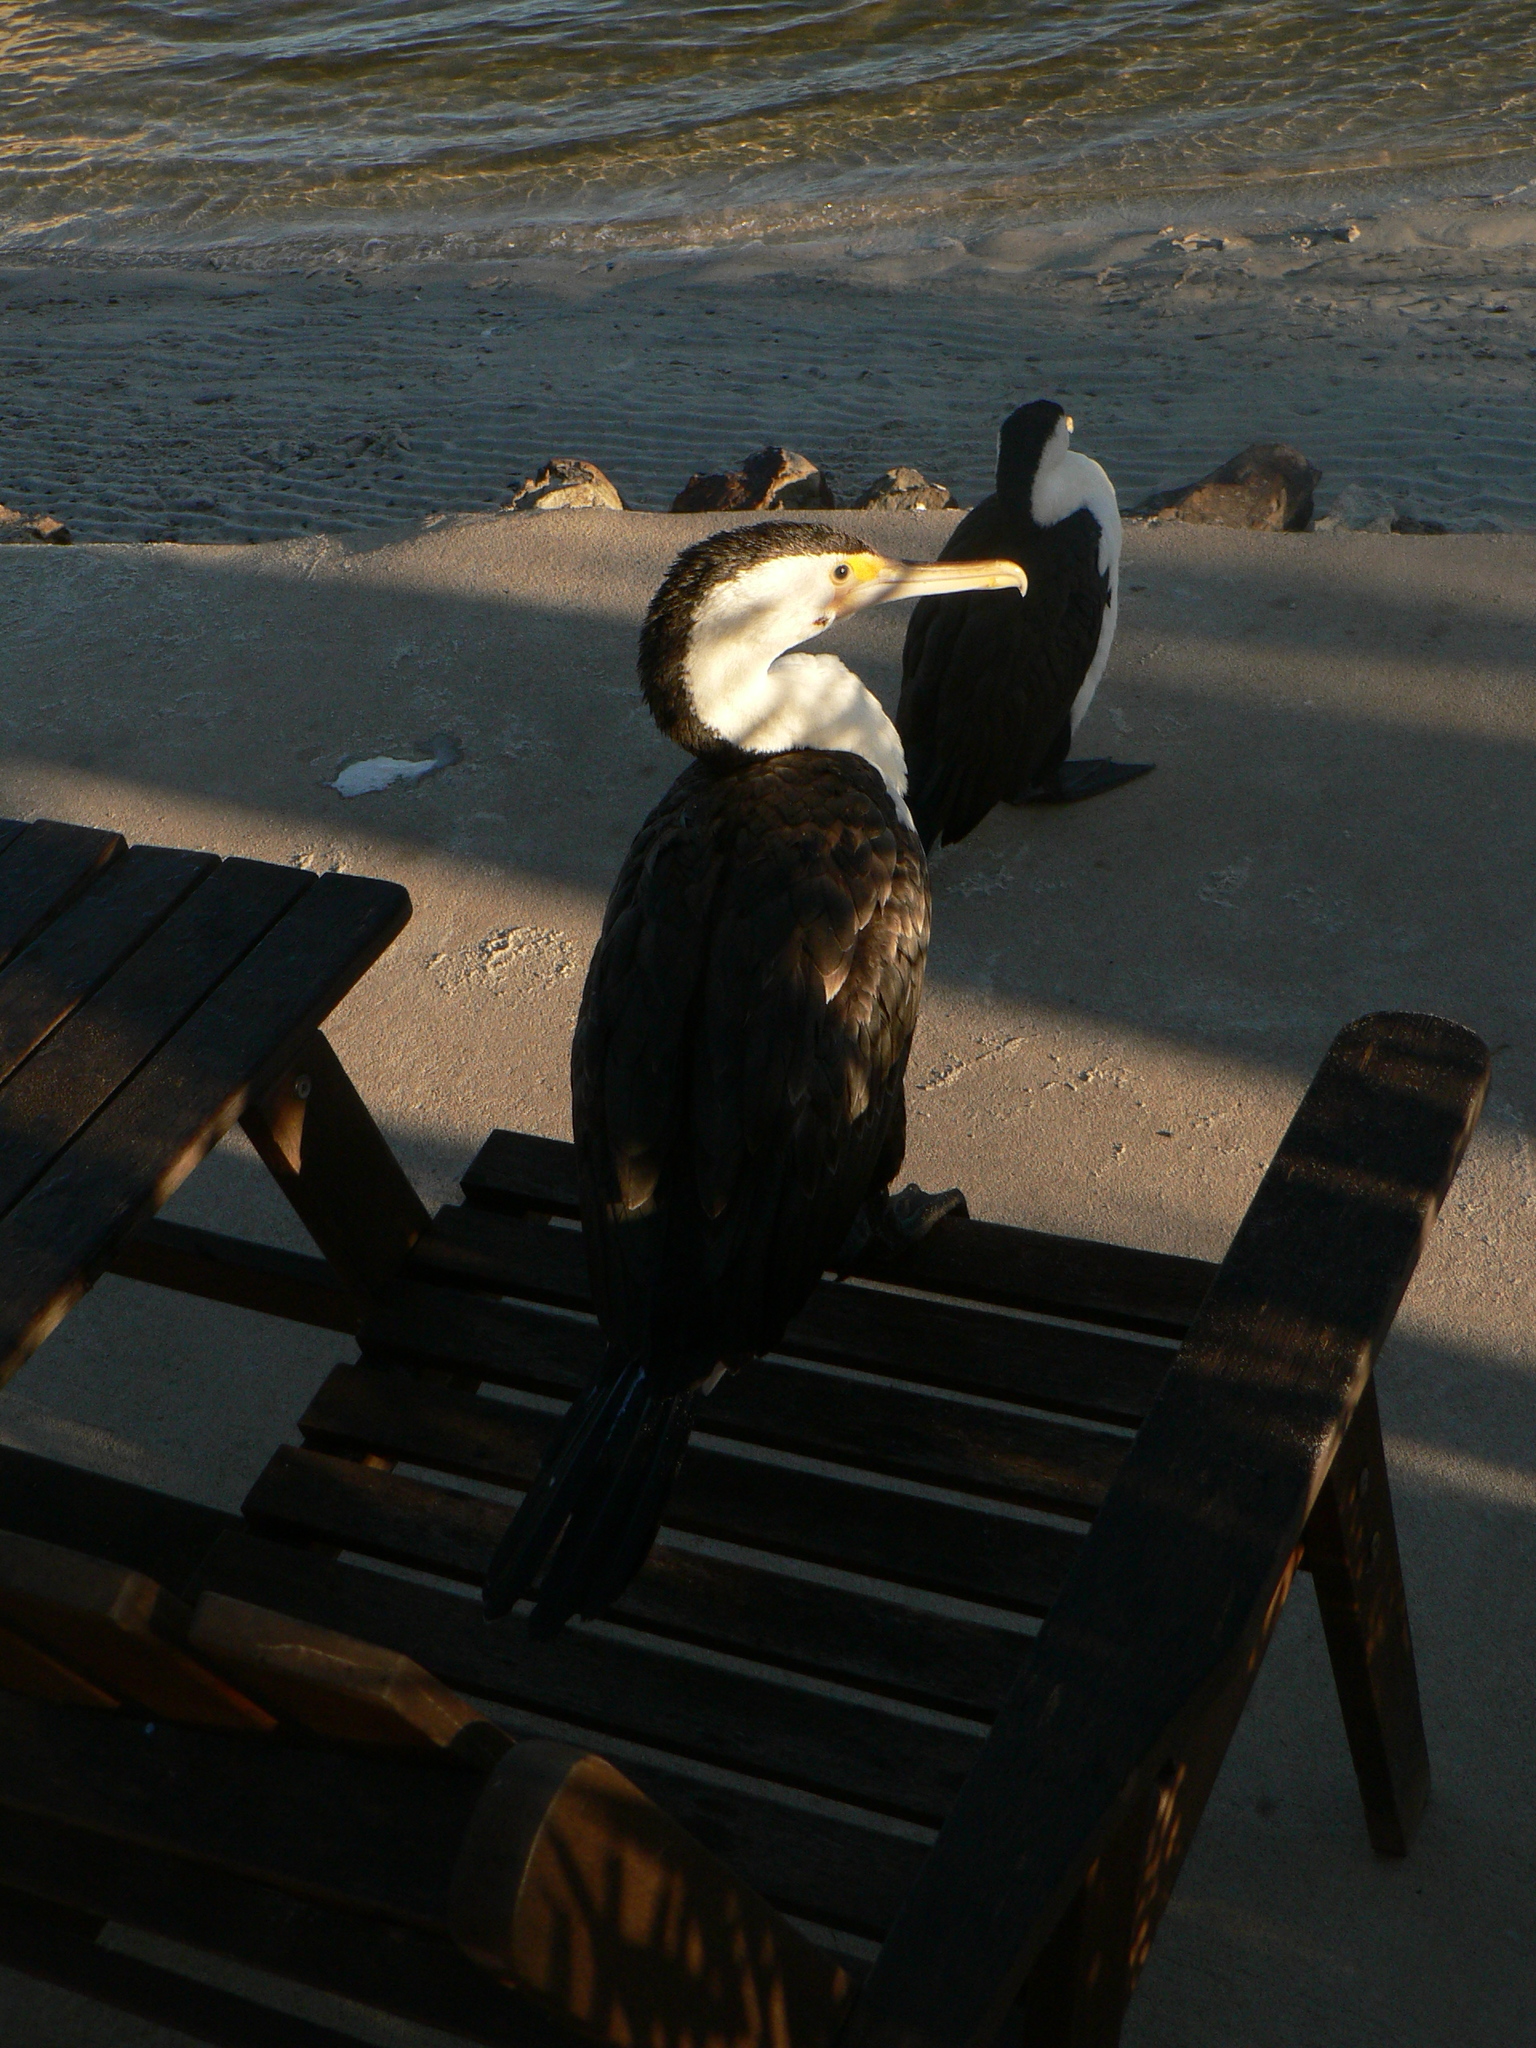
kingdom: Animalia
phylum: Chordata
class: Aves
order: Suliformes
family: Phalacrocoracidae
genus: Phalacrocorax
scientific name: Phalacrocorax varius
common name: Pied cormorant
